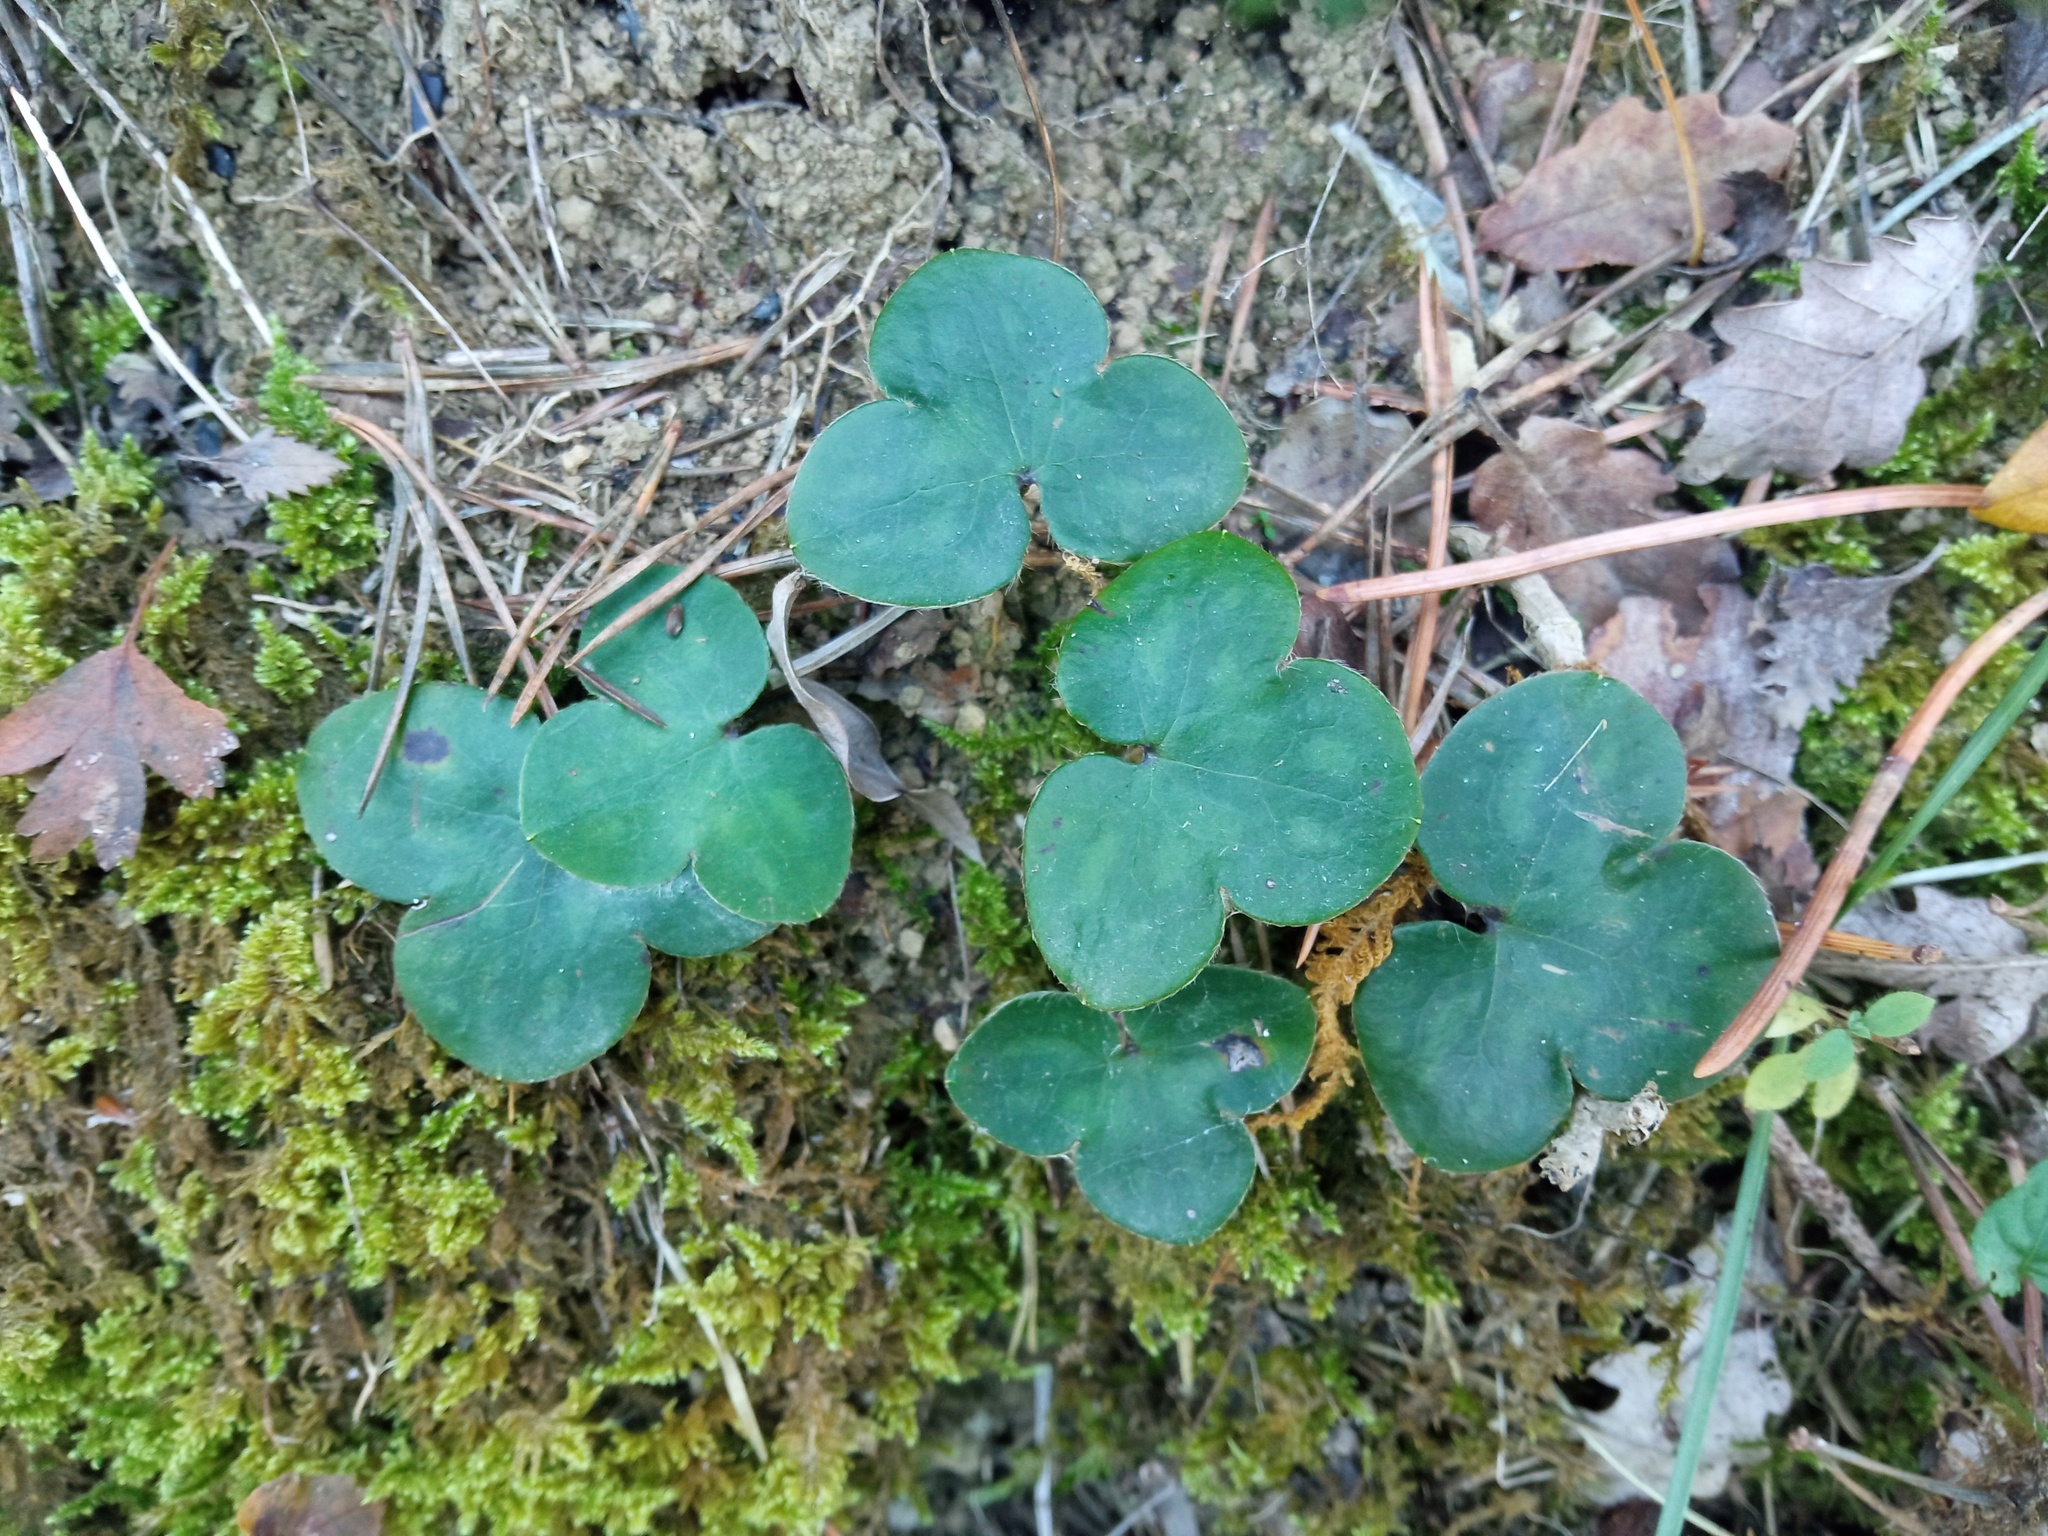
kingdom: Plantae
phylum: Tracheophyta
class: Magnoliopsida
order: Ranunculales
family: Ranunculaceae
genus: Hepatica
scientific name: Hepatica nobilis
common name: Liverleaf
